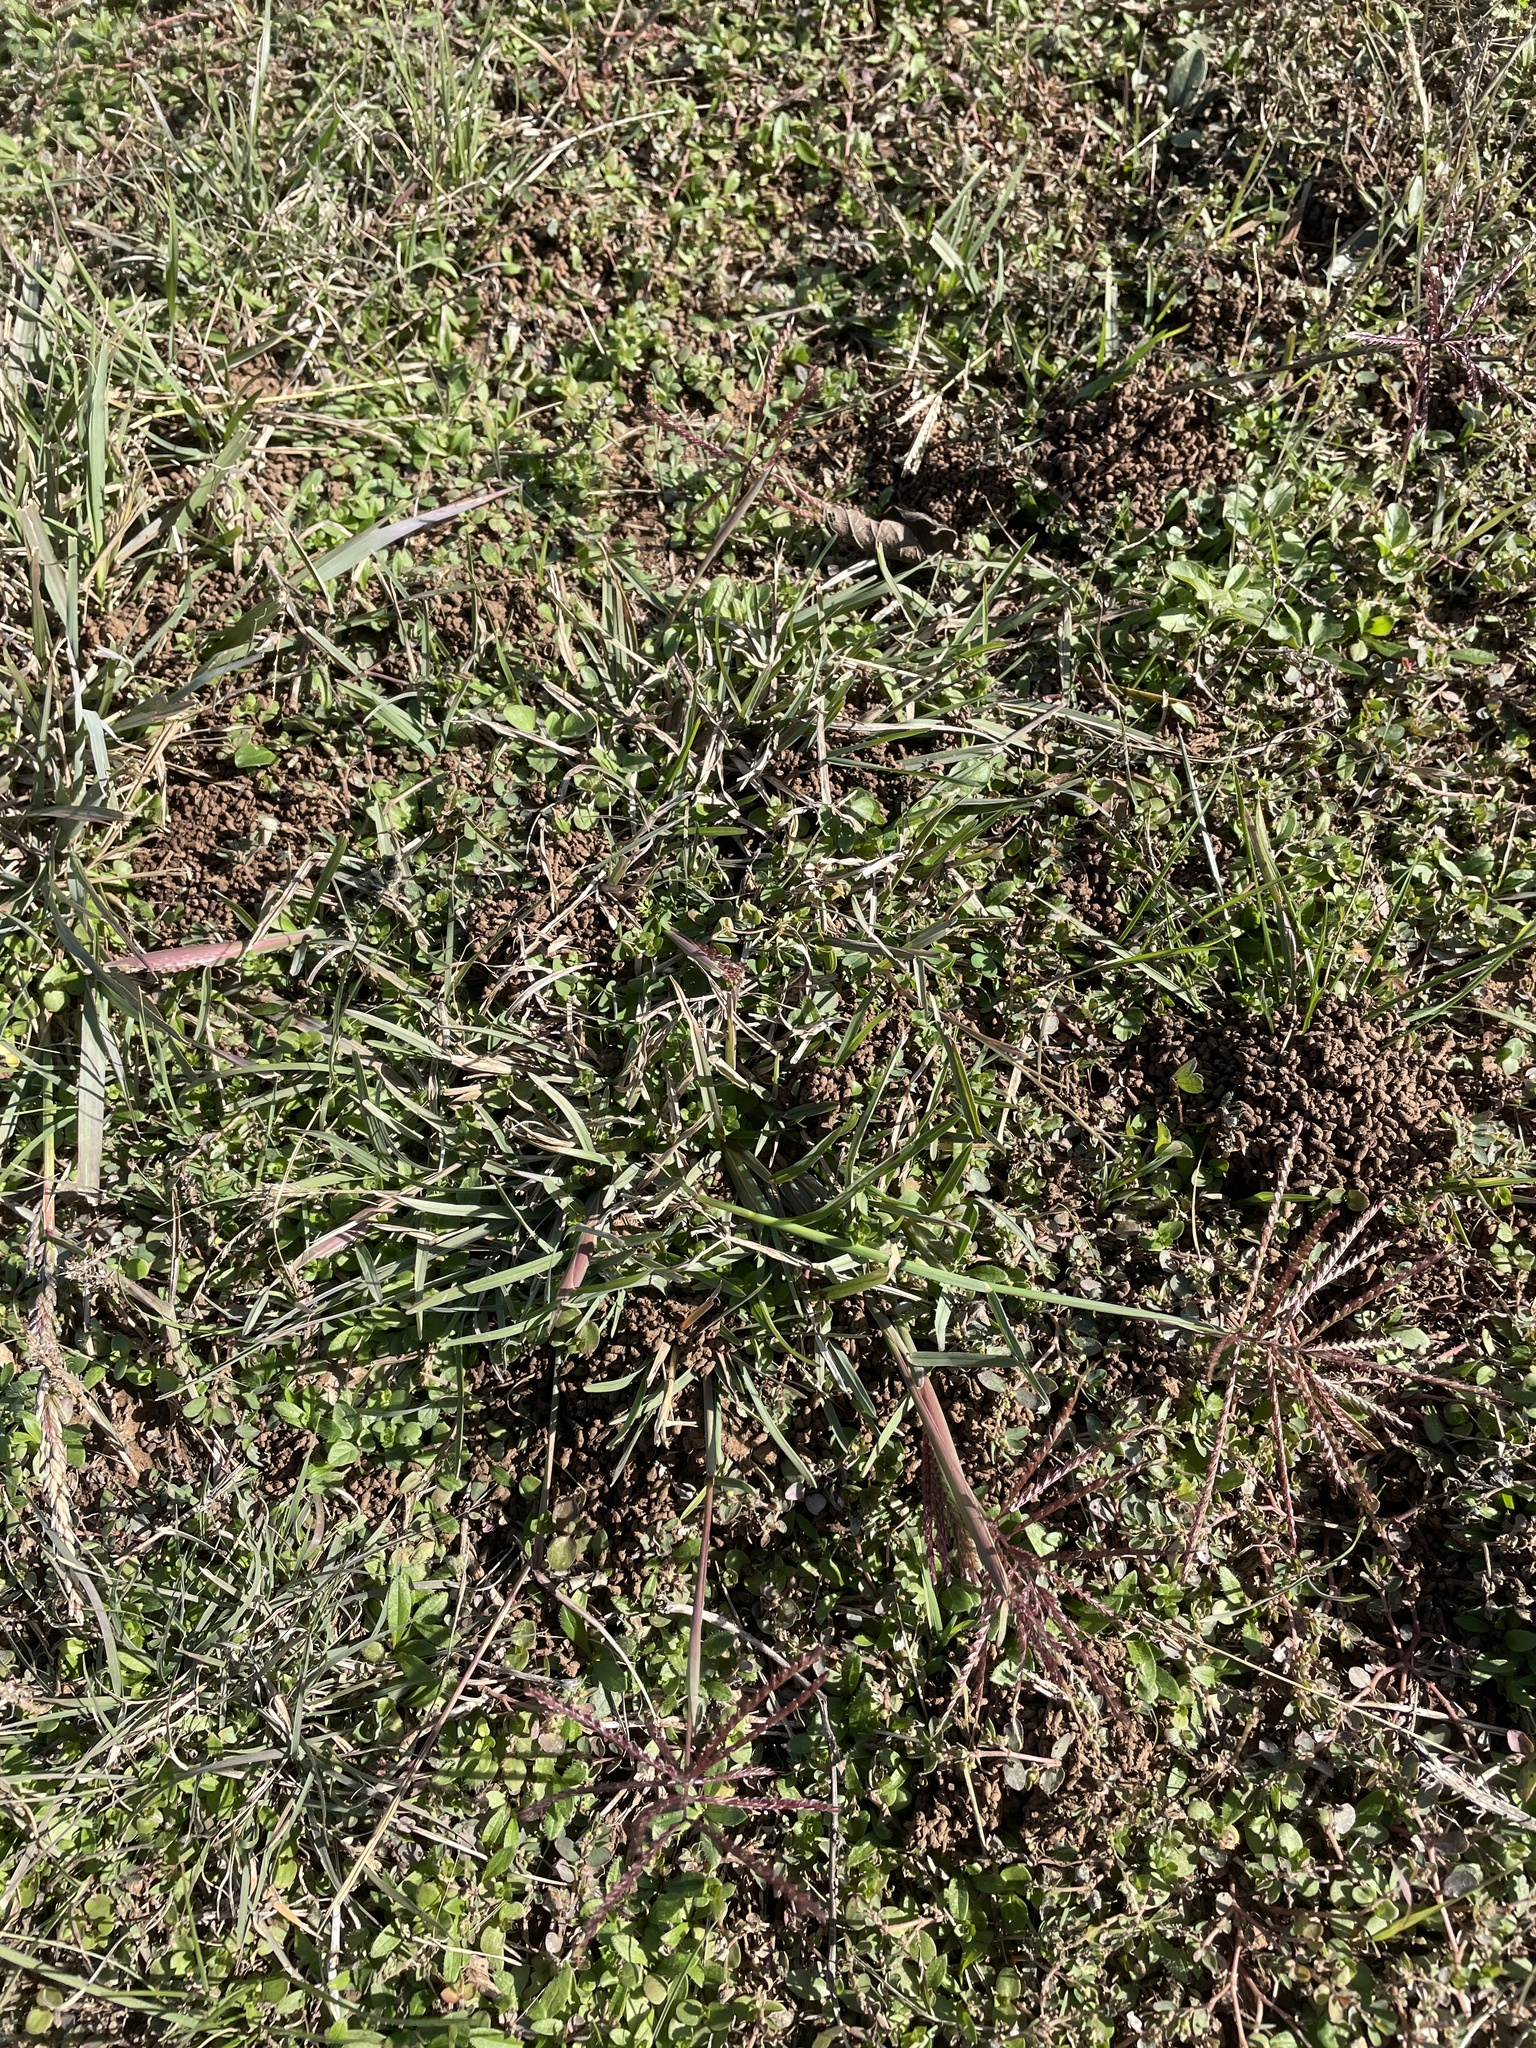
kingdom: Plantae
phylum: Tracheophyta
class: Liliopsida
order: Poales
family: Poaceae
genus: Chloris
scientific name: Chloris subdolichostachya
